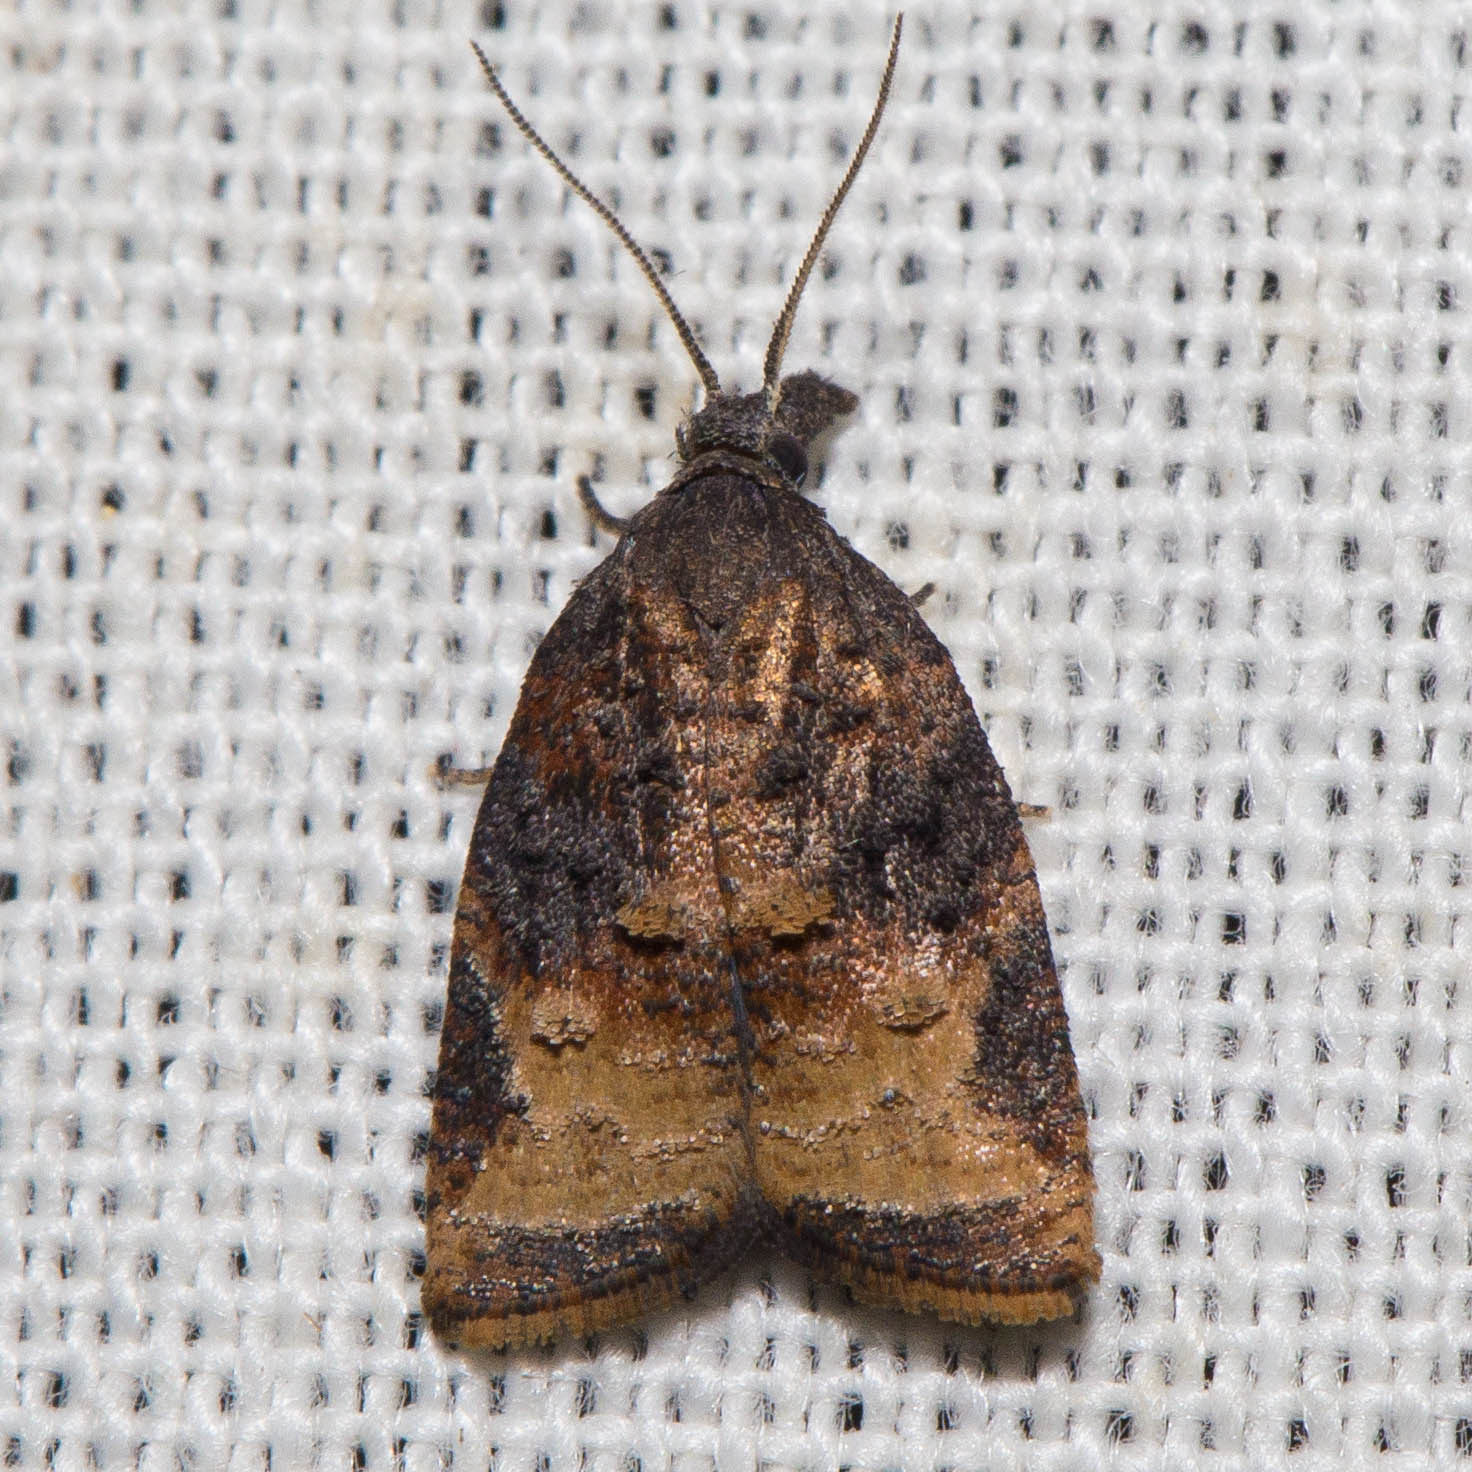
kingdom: Animalia
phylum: Arthropoda
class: Insecta
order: Lepidoptera
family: Tortricidae
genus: Platynota
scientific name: Platynota stultana
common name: Omnivorous leafroller
